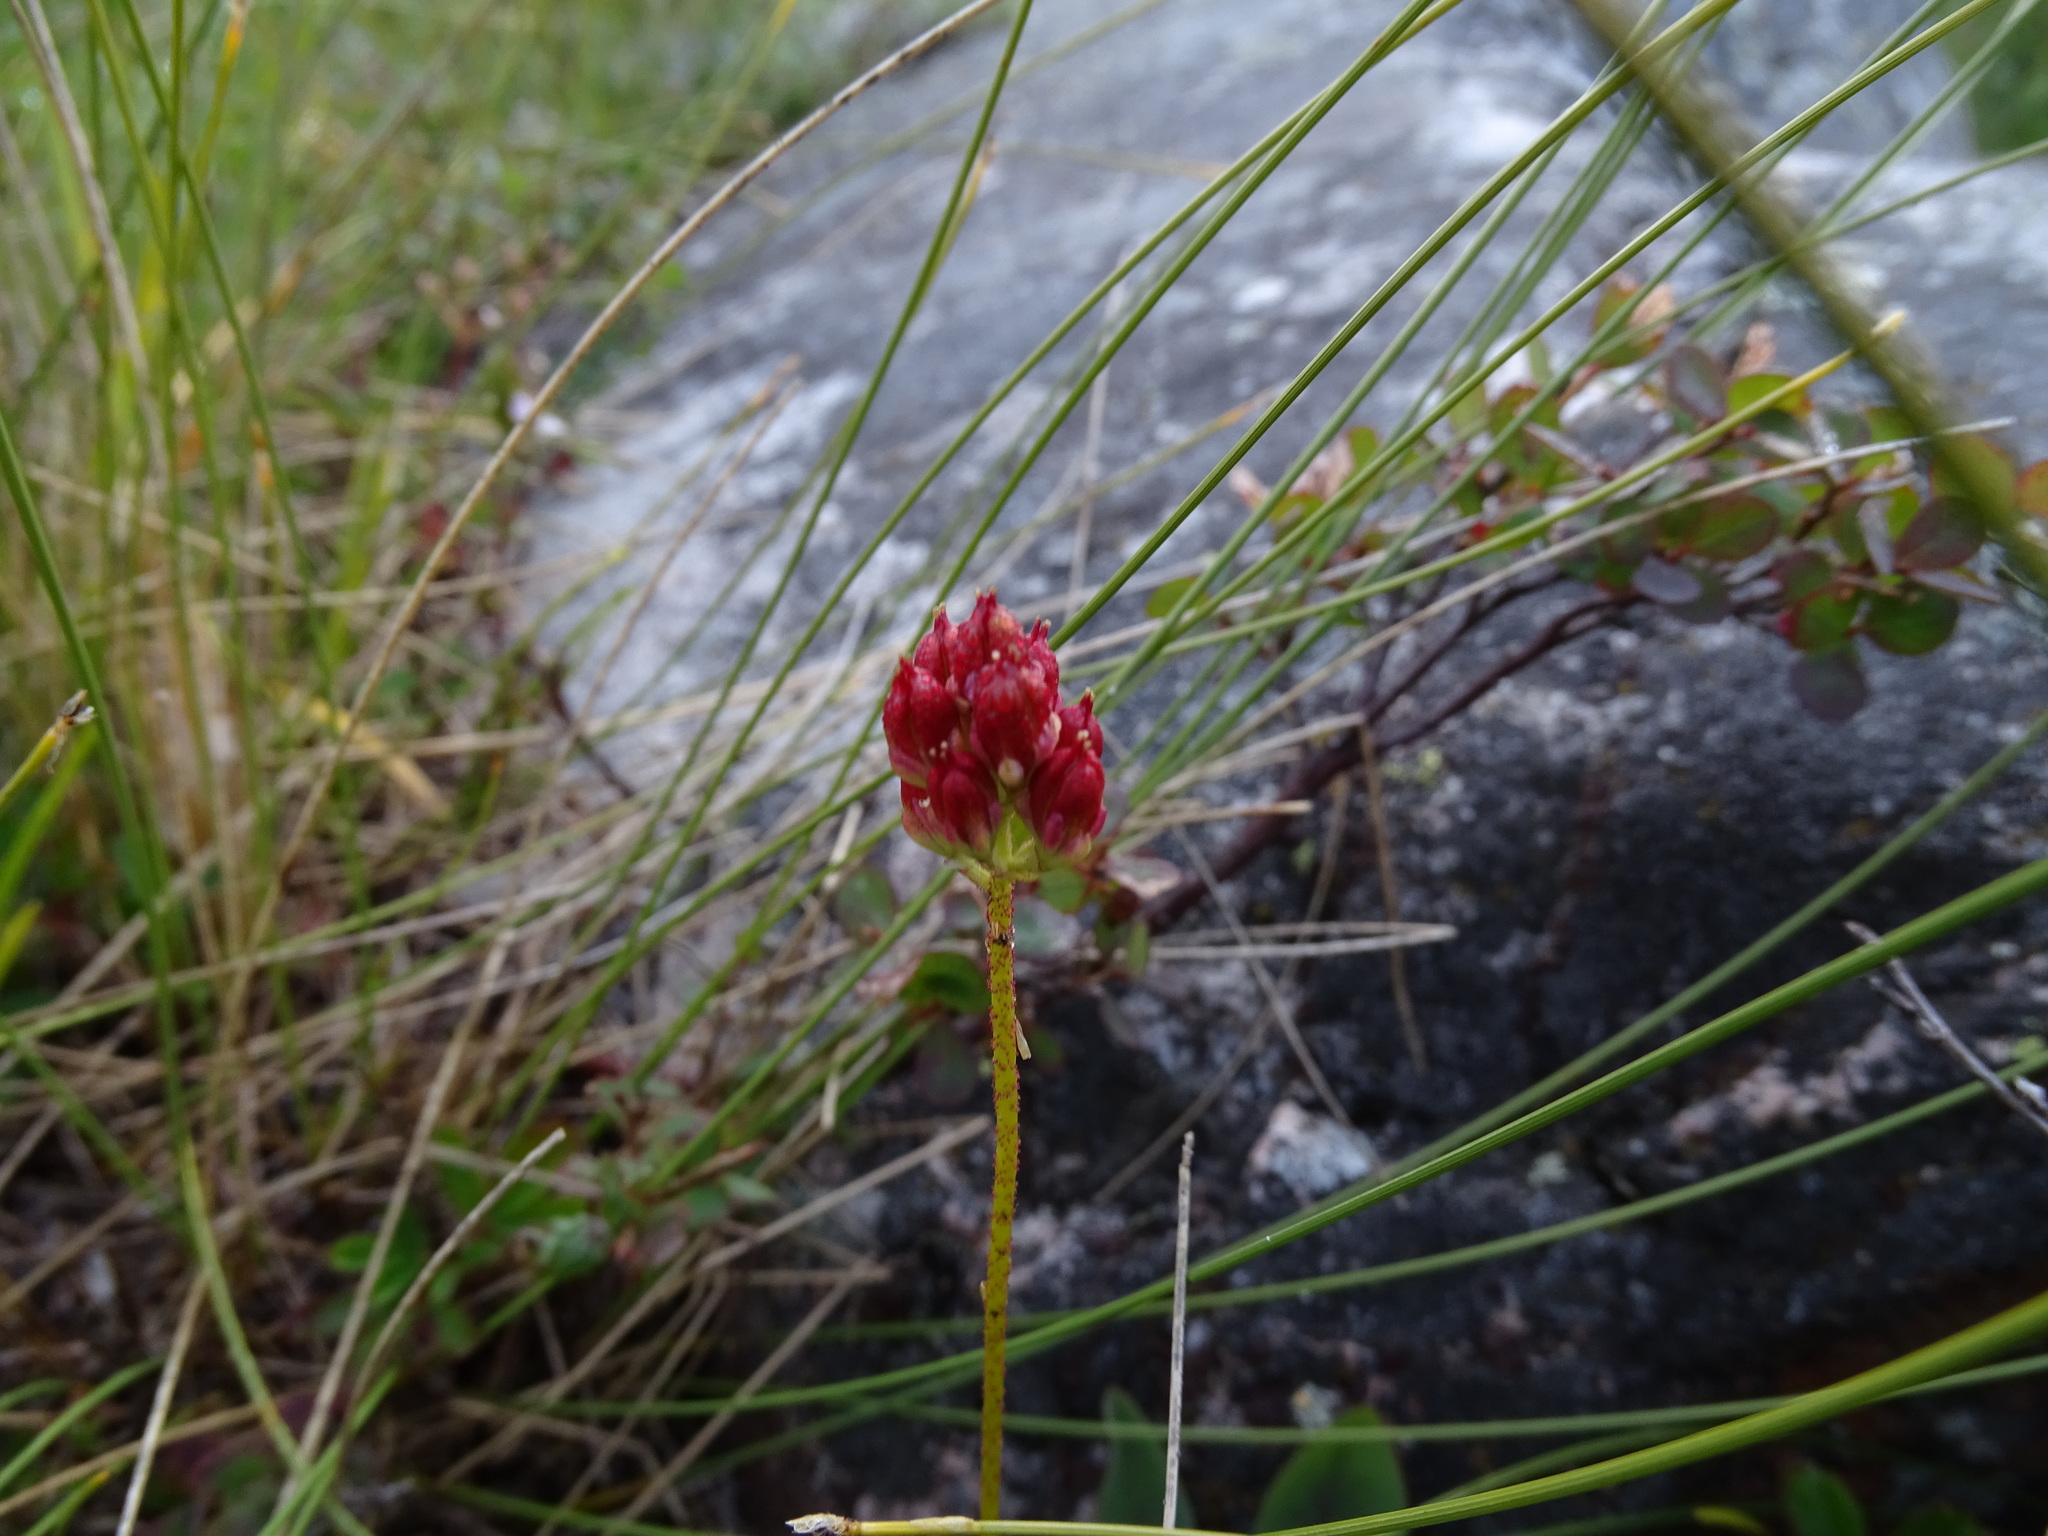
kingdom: Plantae
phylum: Tracheophyta
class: Liliopsida
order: Alismatales
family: Tofieldiaceae
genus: Triantha
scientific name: Triantha glutinosa
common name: Glutinous tofieldia
